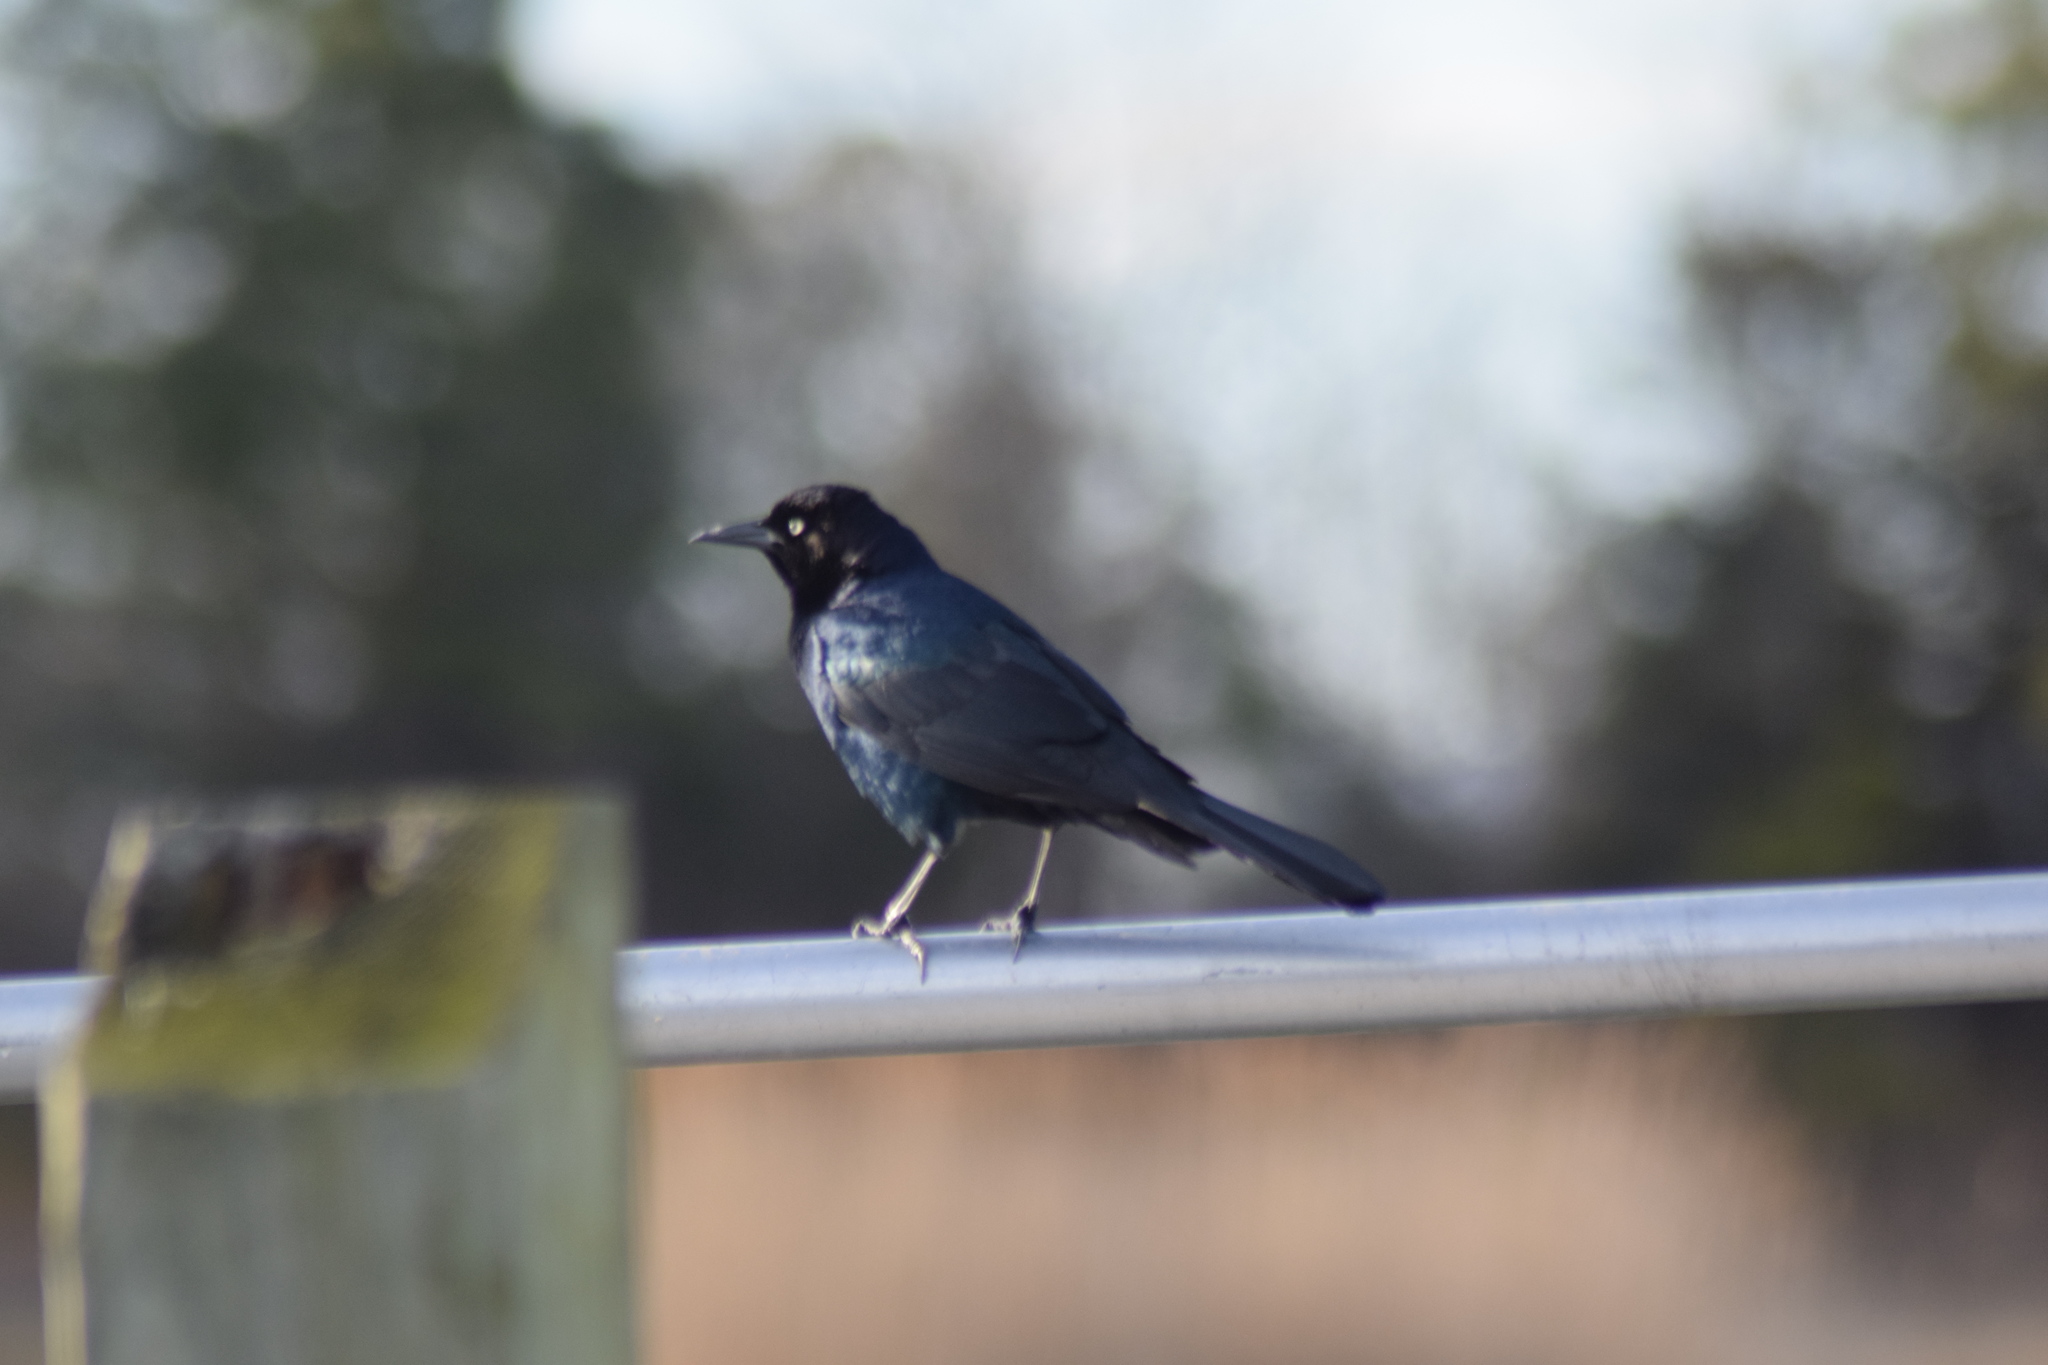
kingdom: Animalia
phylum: Chordata
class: Aves
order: Passeriformes
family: Icteridae
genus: Quiscalus
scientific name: Quiscalus quiscula
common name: Common grackle
